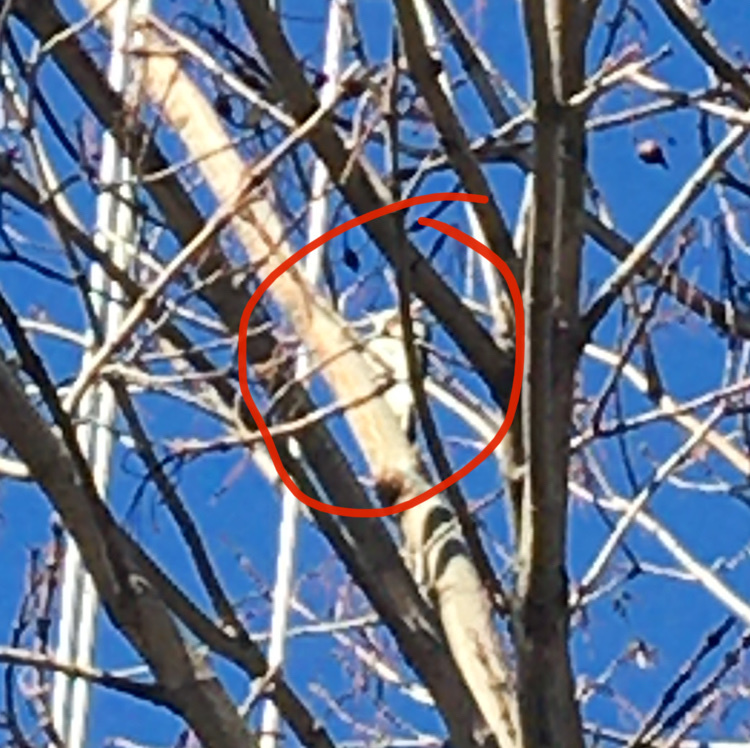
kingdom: Animalia
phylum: Chordata
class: Aves
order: Piciformes
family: Picidae
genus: Dryobates
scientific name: Dryobates
